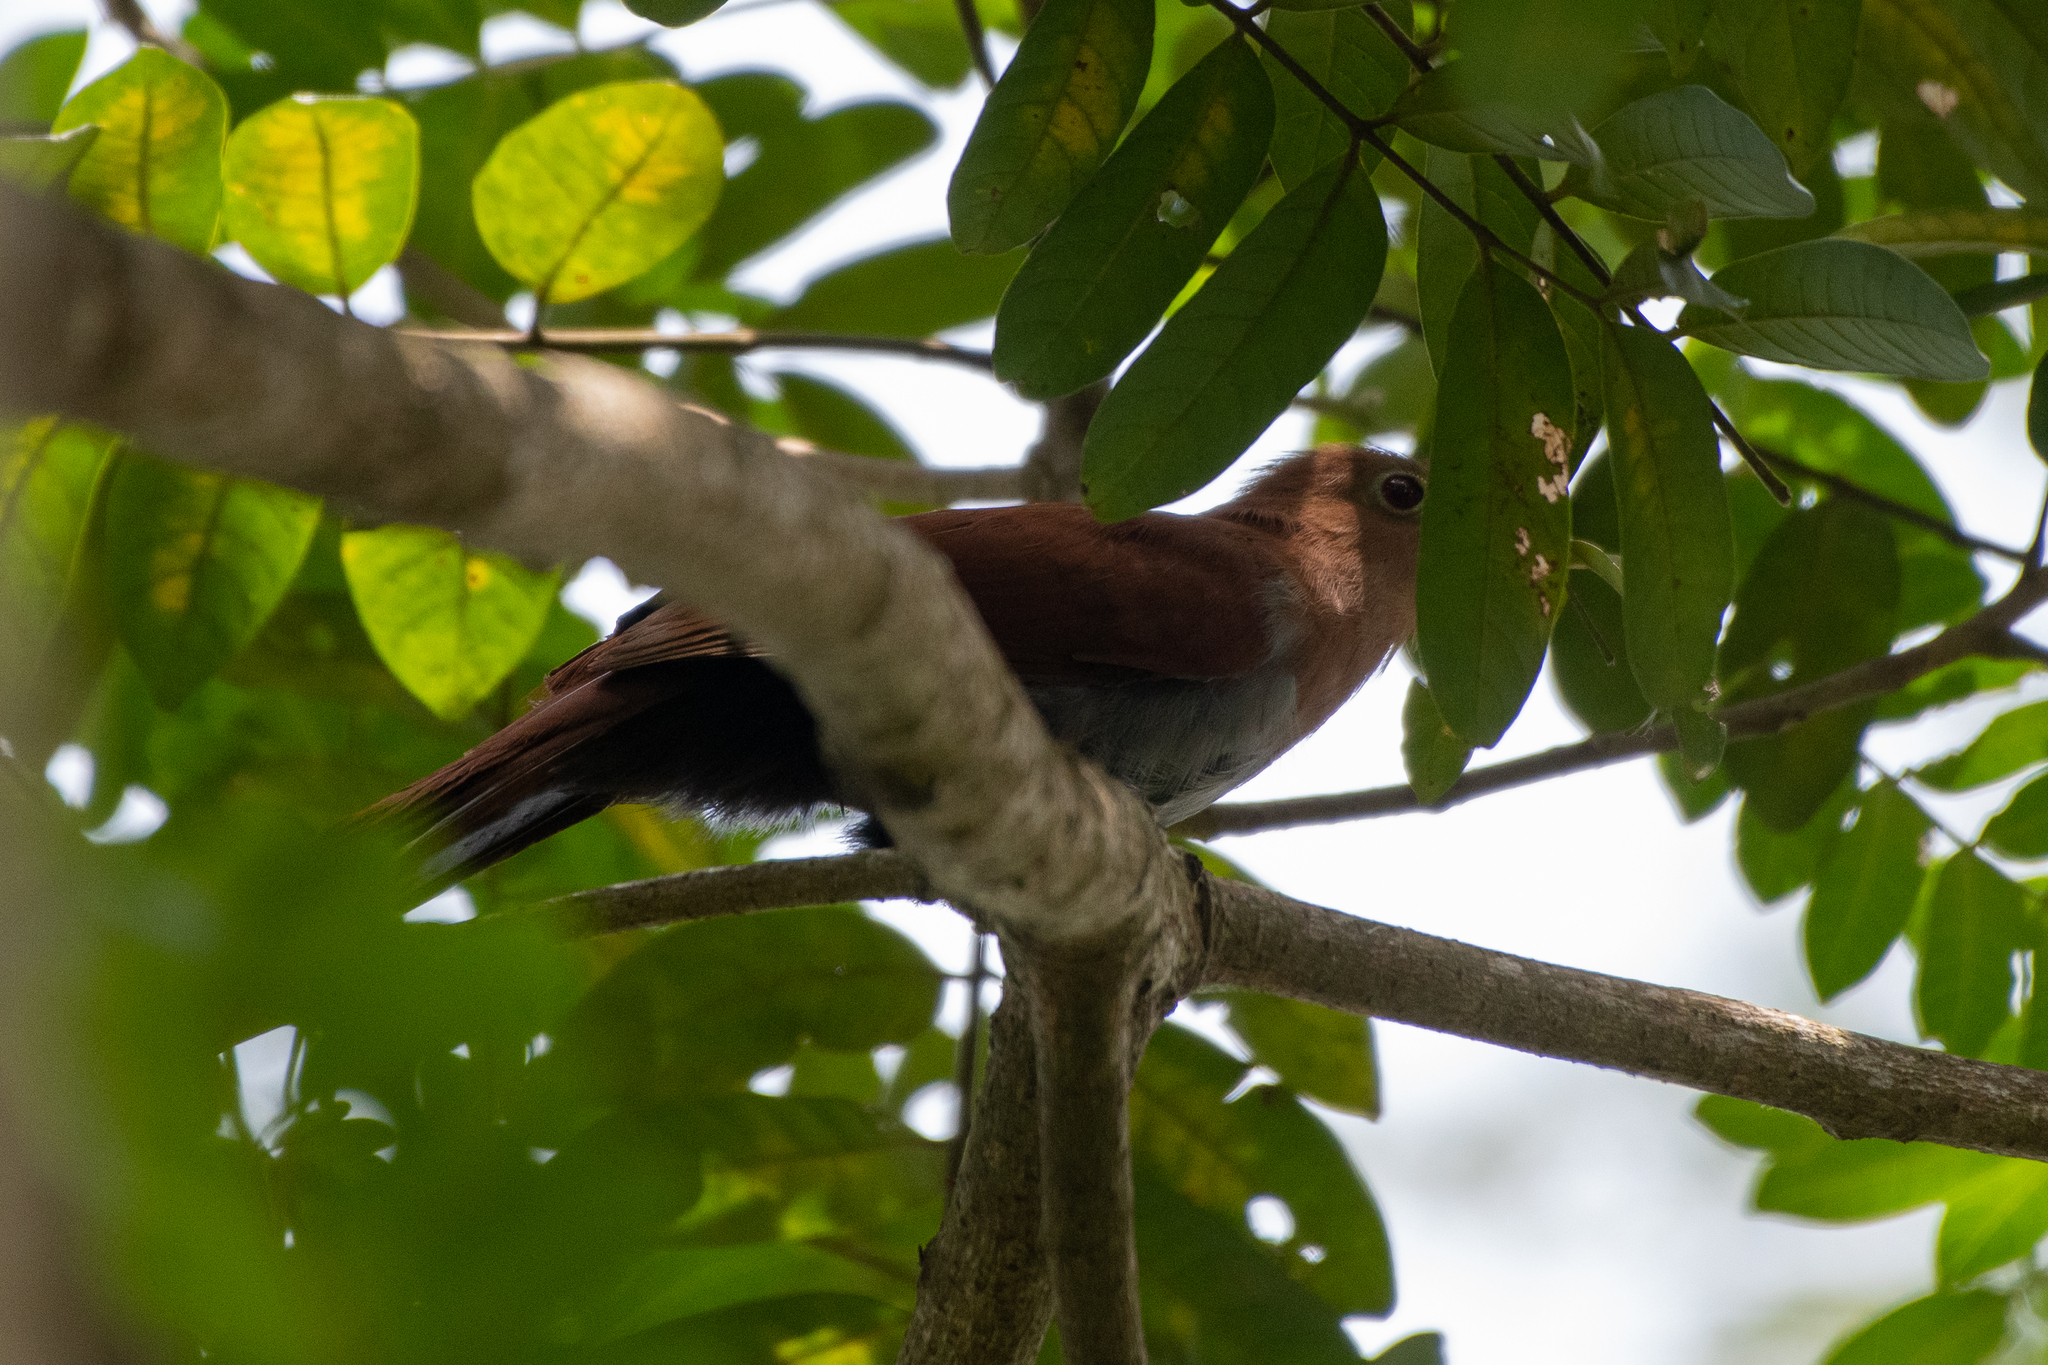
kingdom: Animalia
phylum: Chordata
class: Aves
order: Cuculiformes
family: Cuculidae
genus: Piaya
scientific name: Piaya cayana
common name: Squirrel cuckoo
